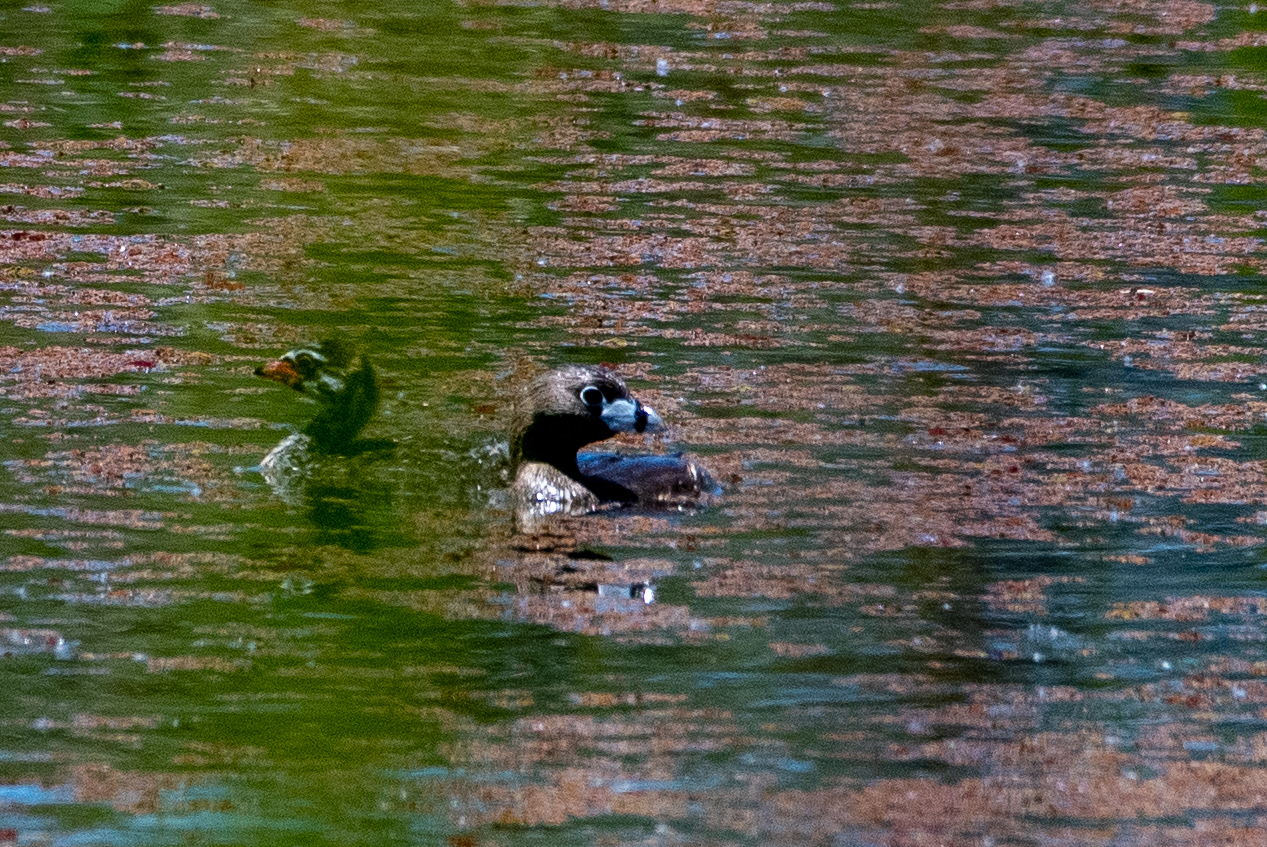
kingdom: Animalia
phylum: Chordata
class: Aves
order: Podicipediformes
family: Podicipedidae
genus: Podilymbus
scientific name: Podilymbus podiceps
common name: Pied-billed grebe
